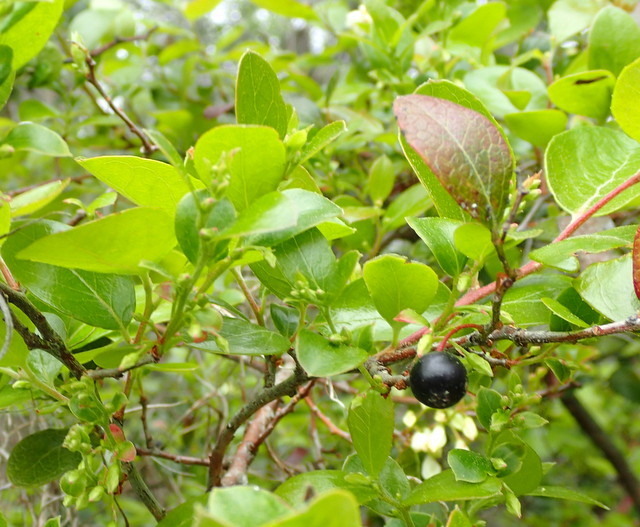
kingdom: Plantae
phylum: Tracheophyta
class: Magnoliopsida
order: Ericales
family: Ericaceae
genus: Vaccinium
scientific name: Vaccinium arboreum
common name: Farkleberry
